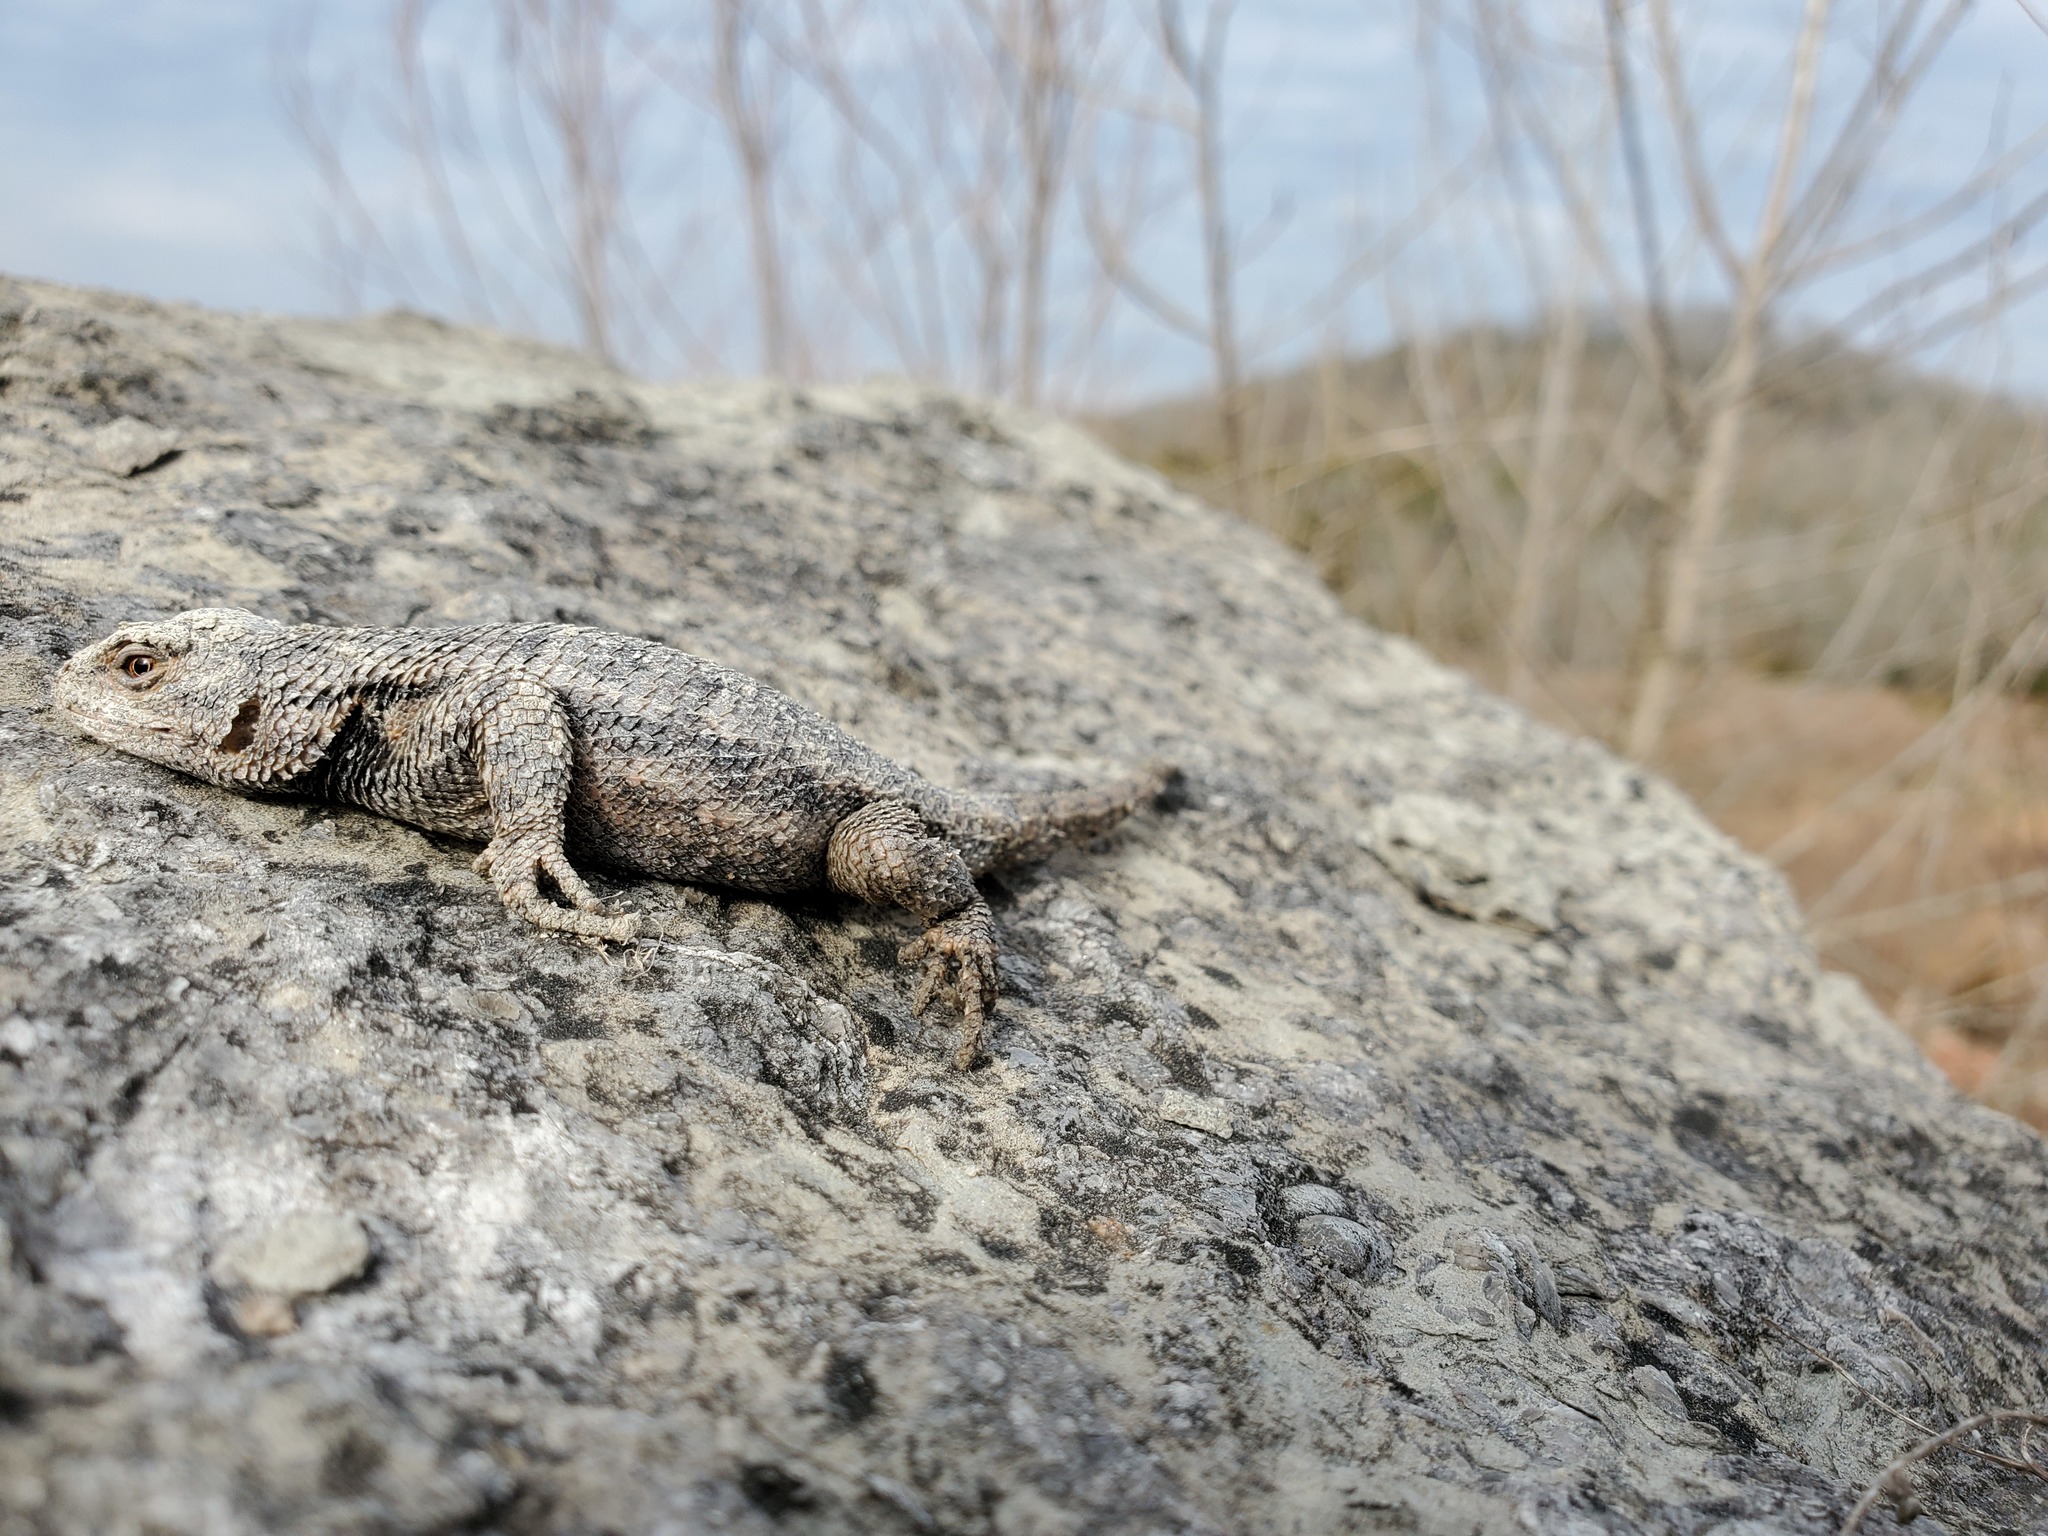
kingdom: Animalia
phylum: Chordata
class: Squamata
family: Phrynosomatidae
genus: Sceloporus
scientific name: Sceloporus undulatus
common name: Eastern fence lizard
